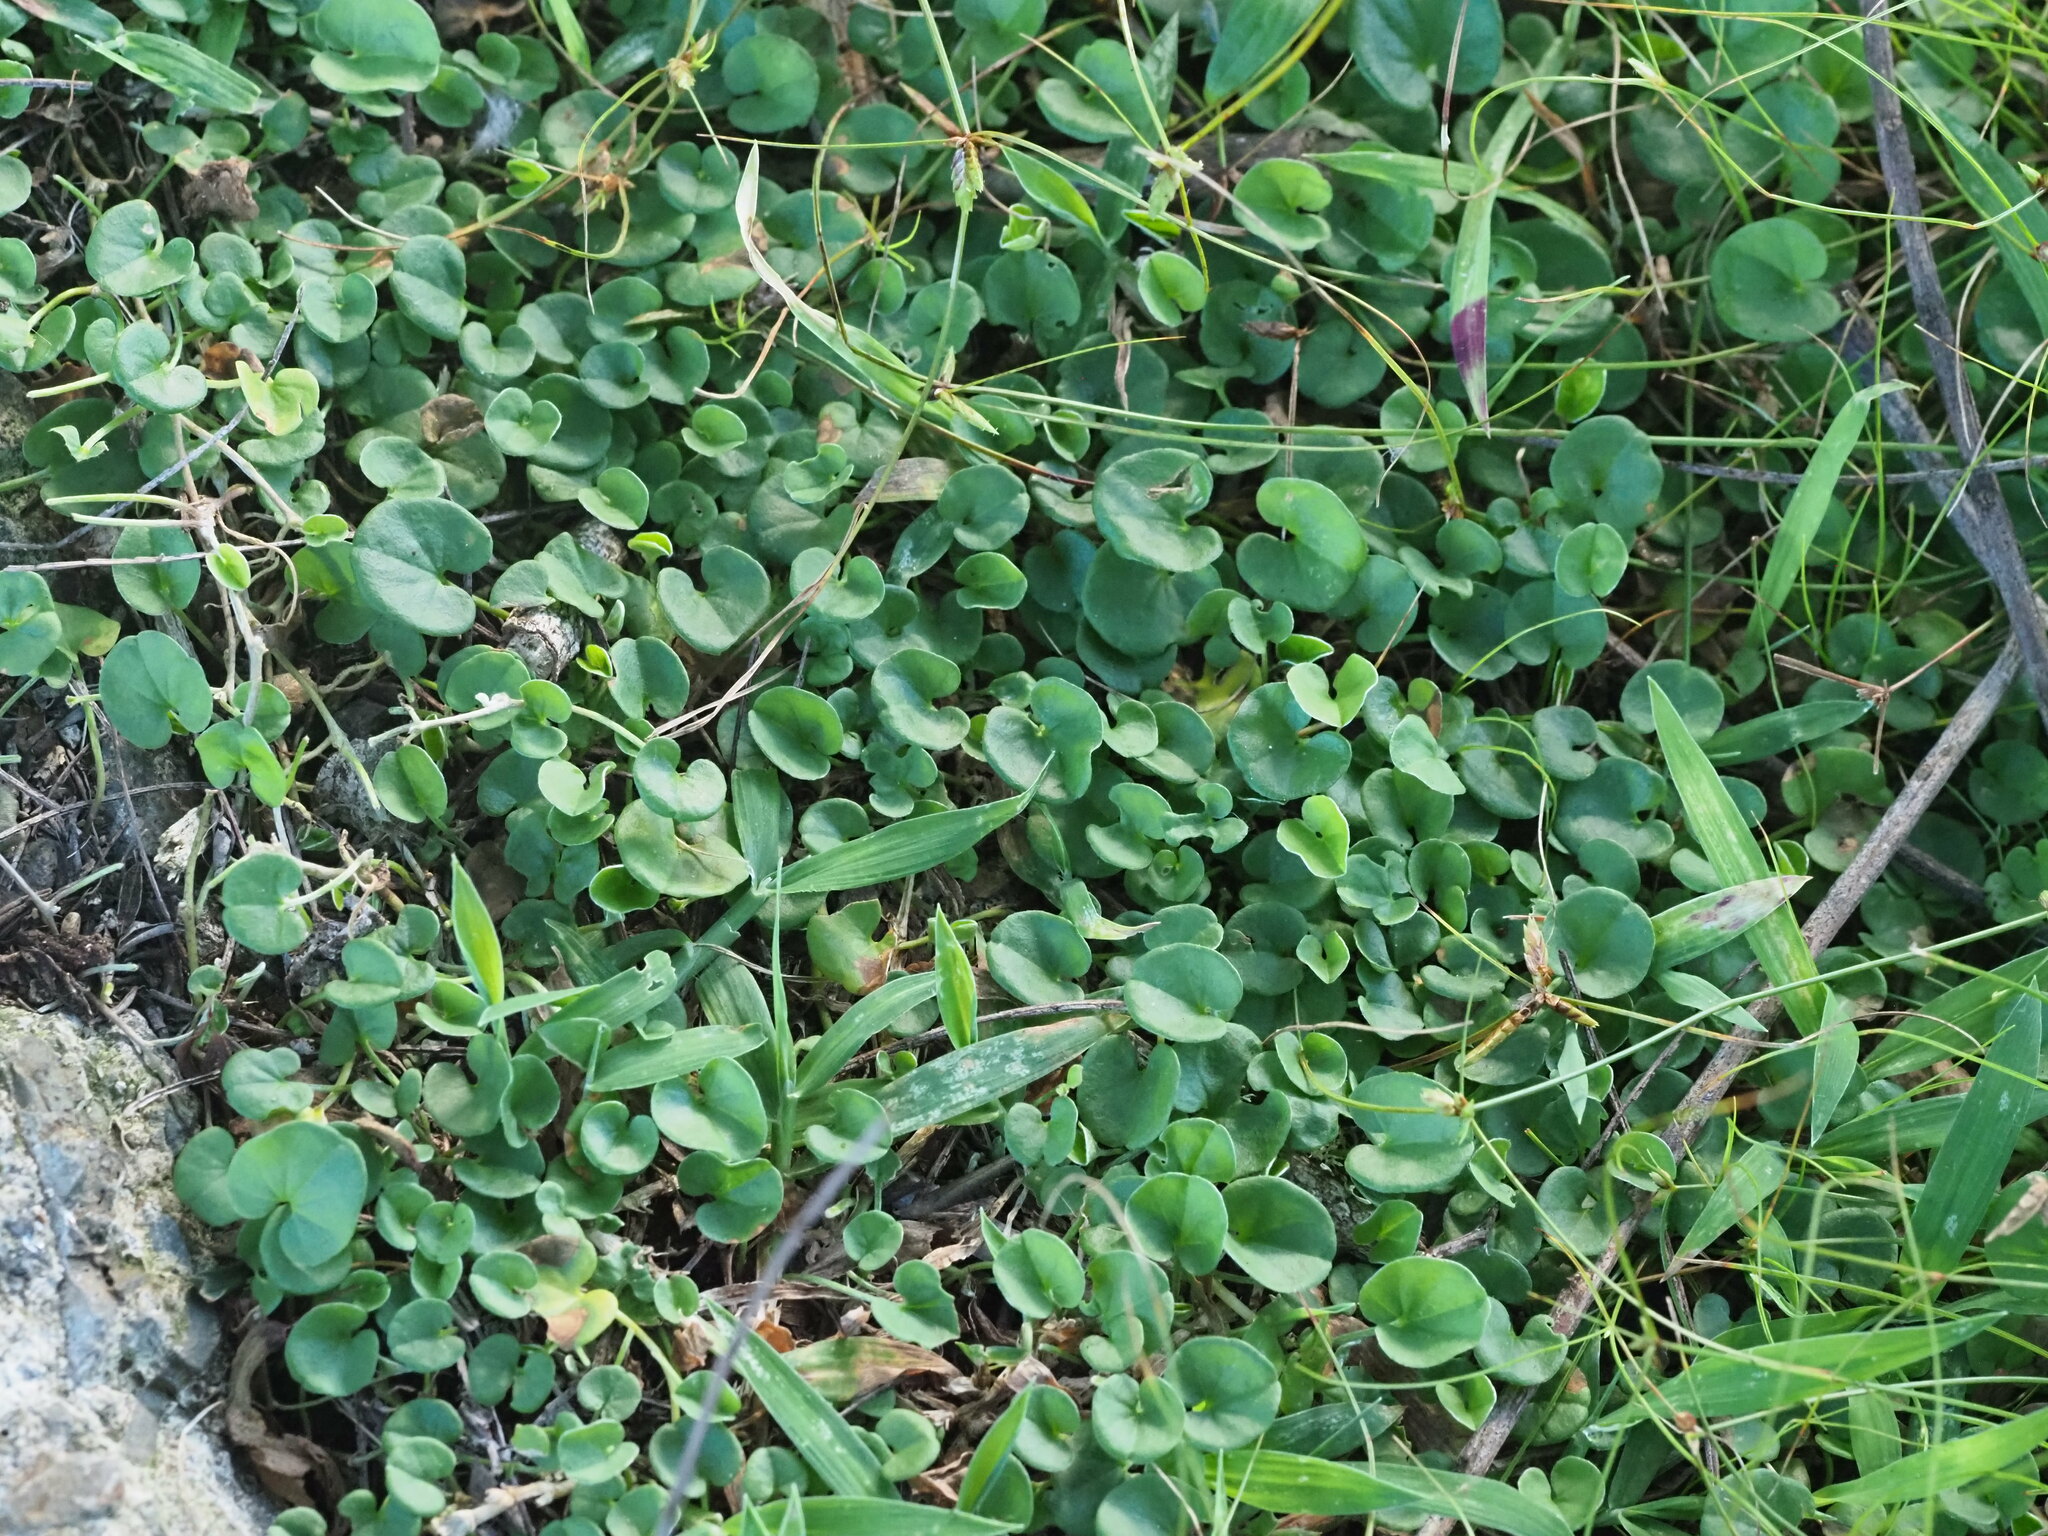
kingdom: Plantae
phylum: Tracheophyta
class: Magnoliopsida
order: Solanales
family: Convolvulaceae
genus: Dichondra
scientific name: Dichondra micrantha
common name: Kidneyweed
